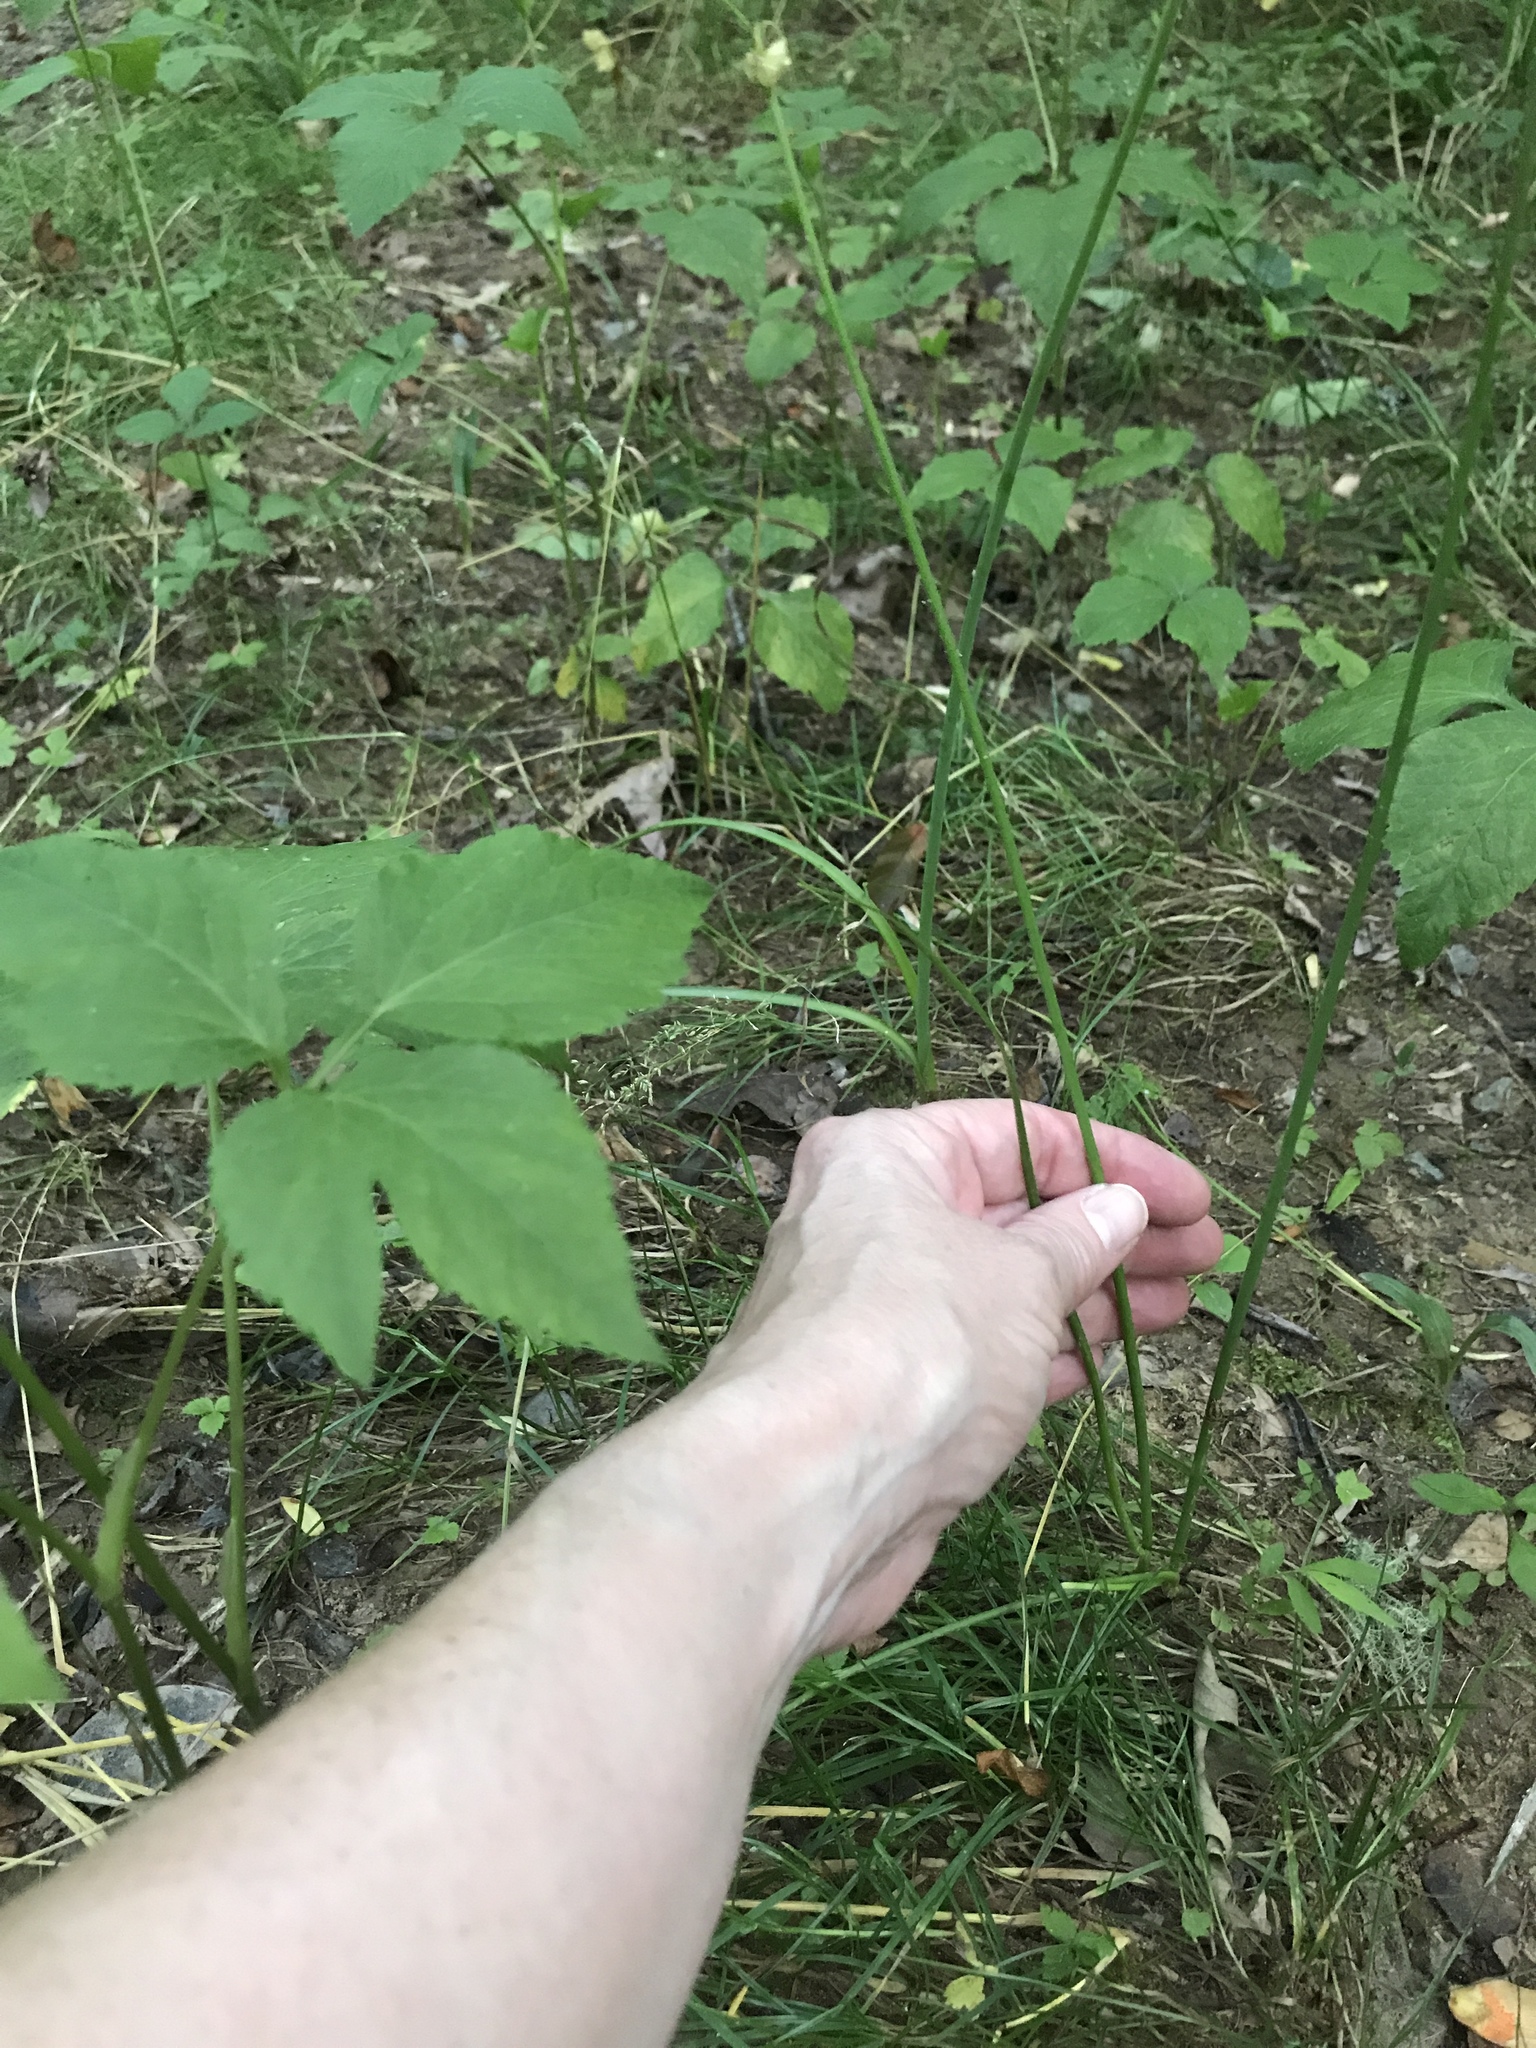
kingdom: Plantae
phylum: Tracheophyta
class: Liliopsida
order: Asparagales
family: Amaryllidaceae
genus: Allium
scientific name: Allium canadense
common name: Meadow garlic
